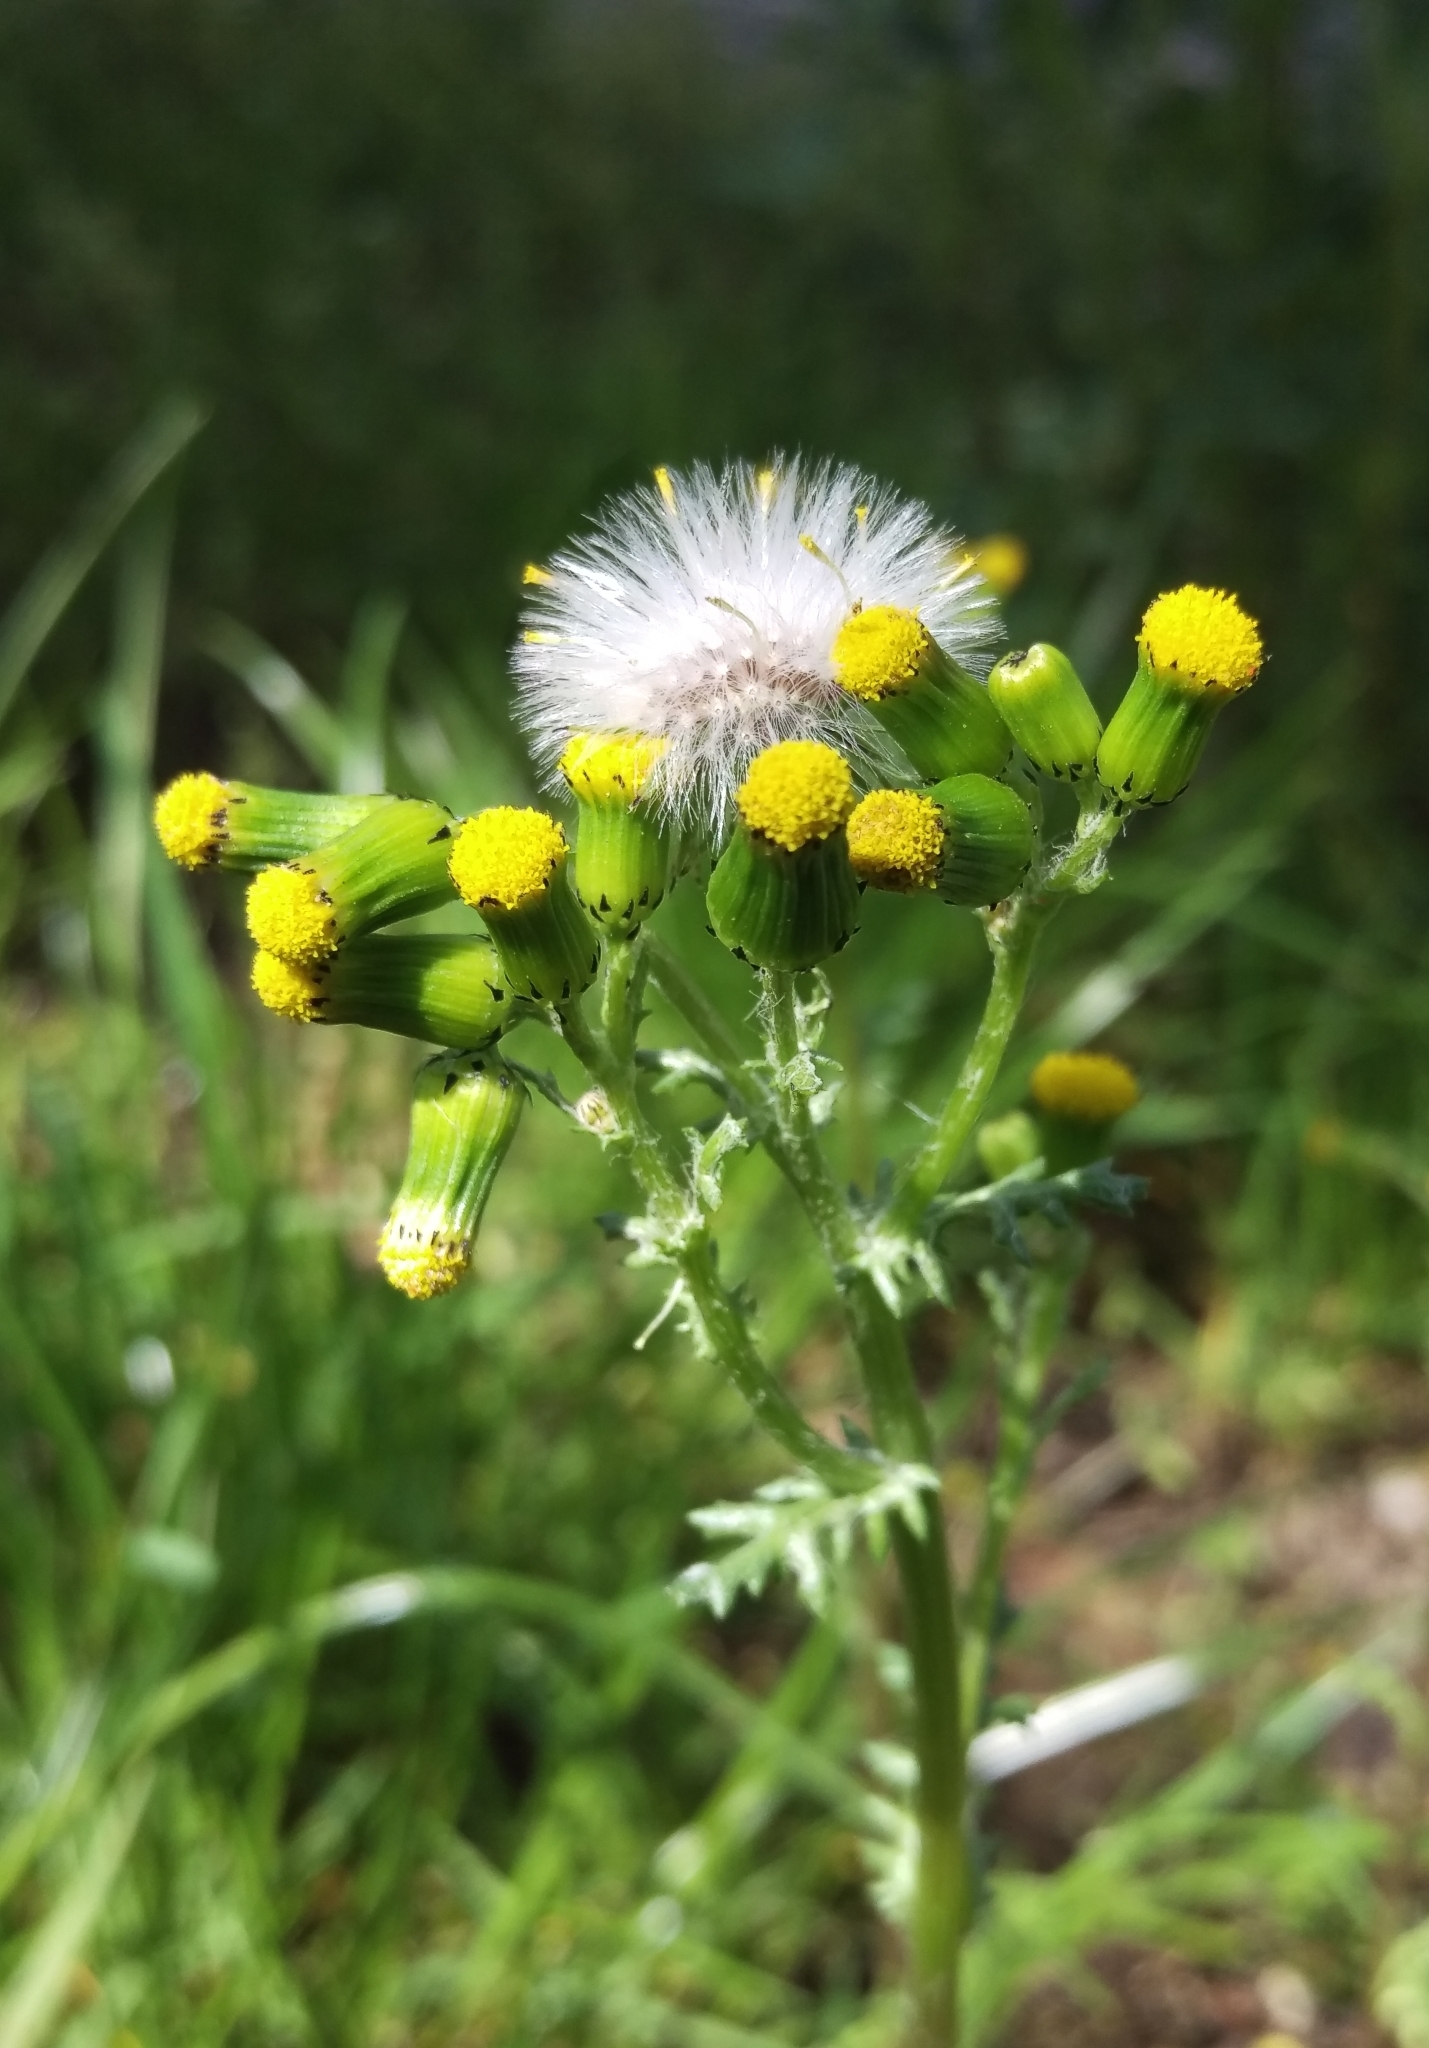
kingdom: Plantae
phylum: Tracheophyta
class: Magnoliopsida
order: Asterales
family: Asteraceae
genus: Senecio
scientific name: Senecio vulgaris
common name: Old-man-in-the-spring
